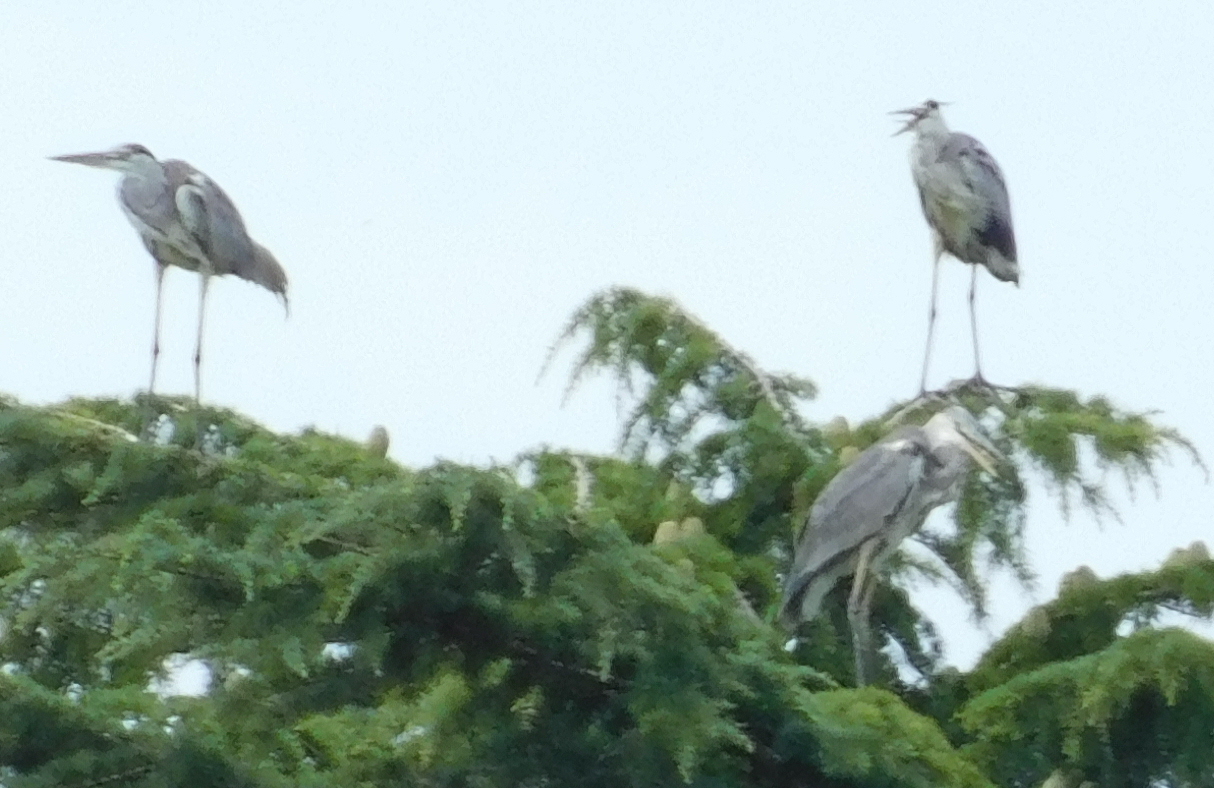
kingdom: Animalia
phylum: Chordata
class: Aves
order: Pelecaniformes
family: Ardeidae
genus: Ardea
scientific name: Ardea cinerea
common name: Grey heron
